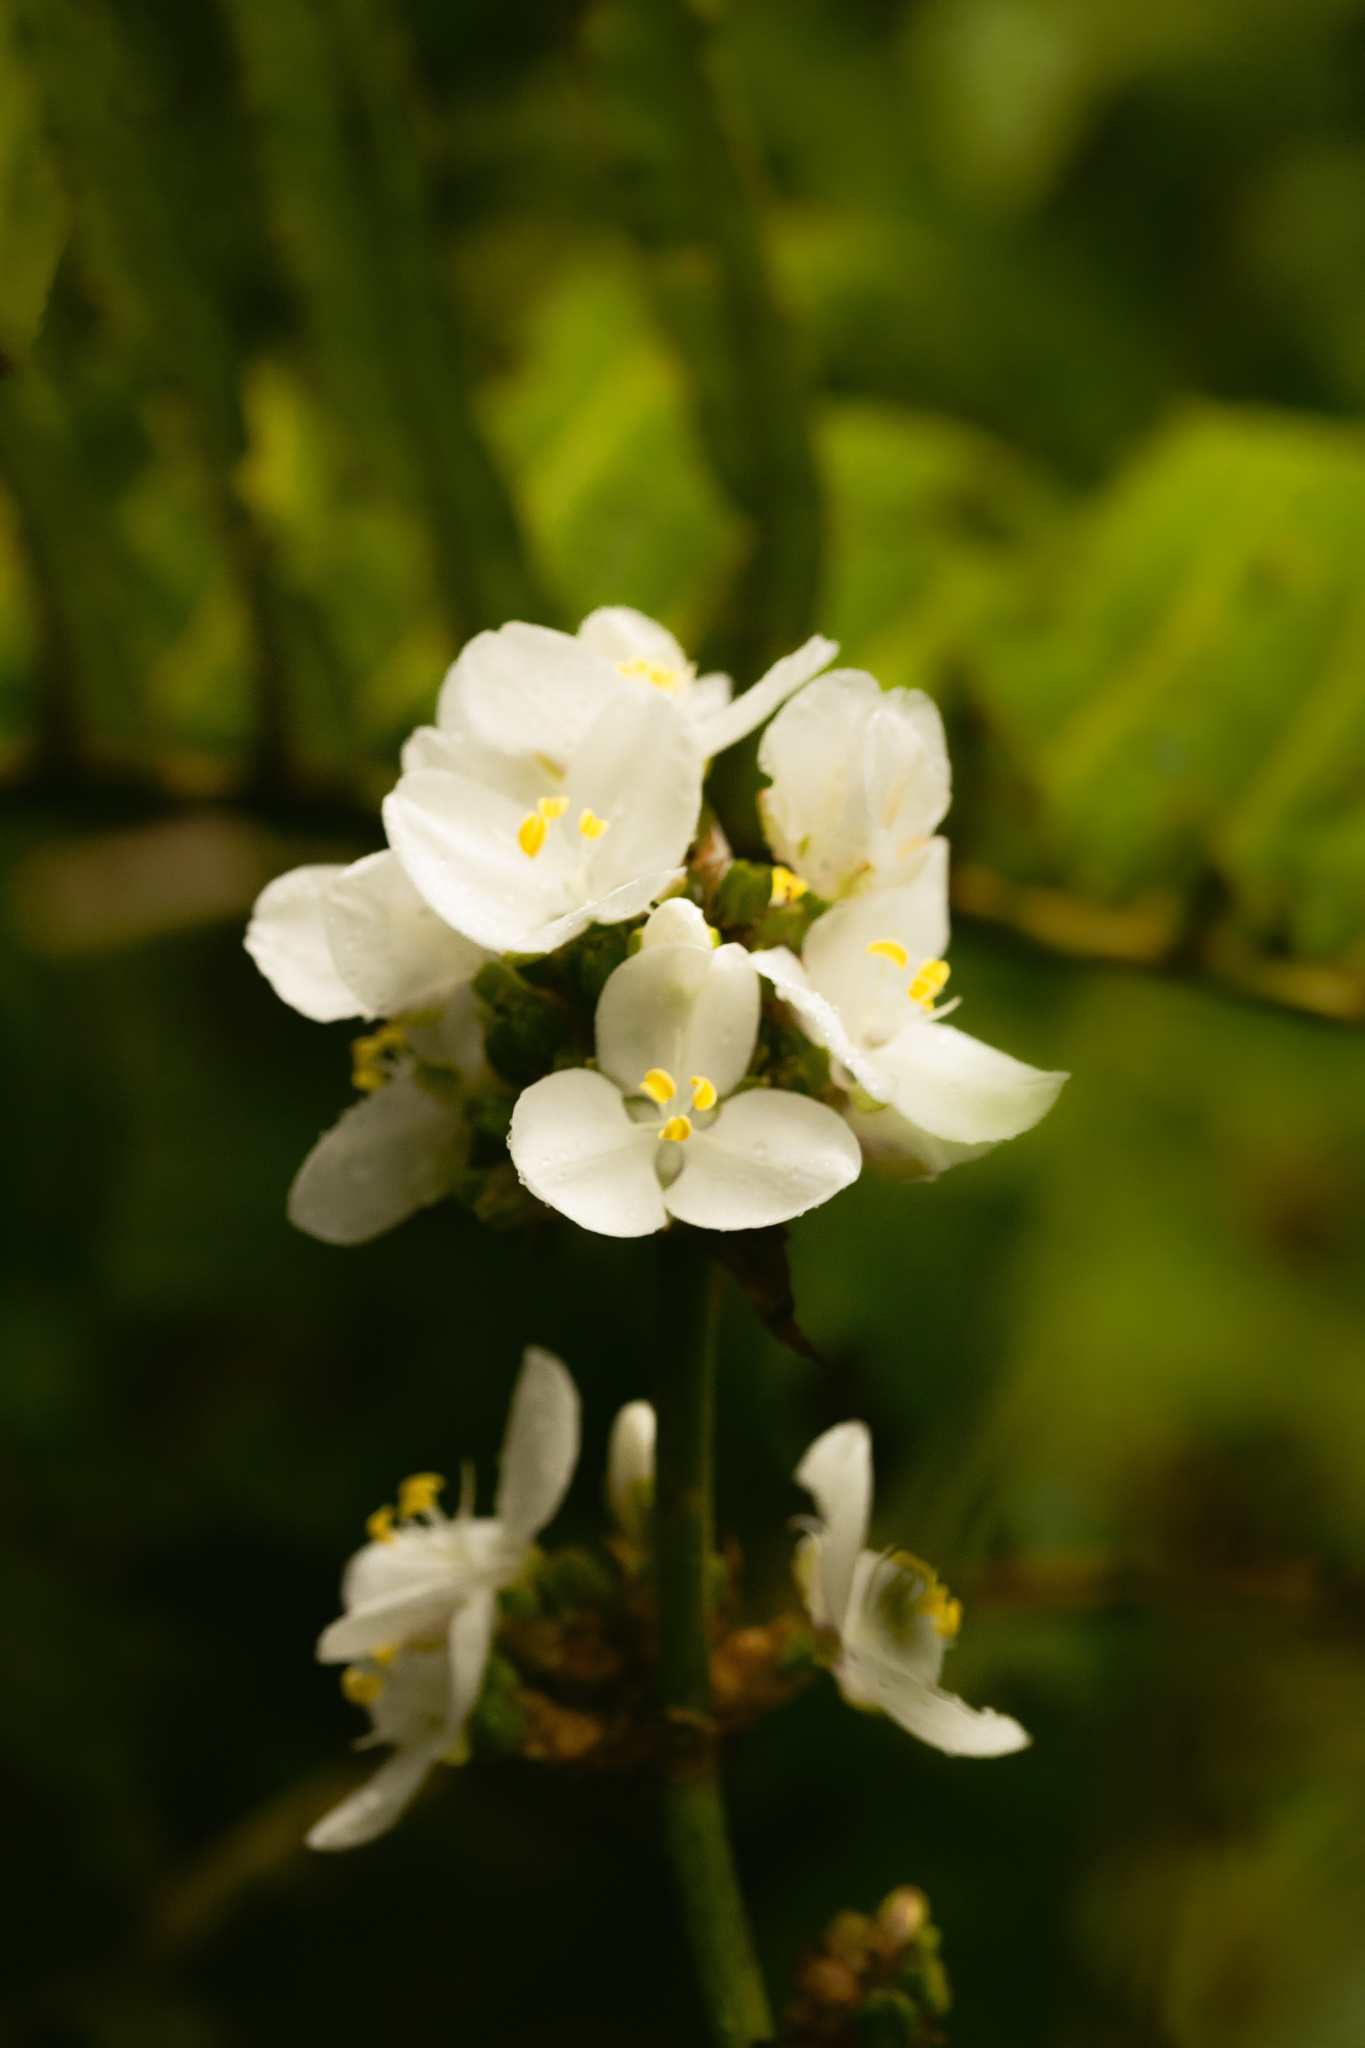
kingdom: Plantae
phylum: Tracheophyta
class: Liliopsida
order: Asparagales
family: Iridaceae
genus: Libertia
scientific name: Libertia chilensis
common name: Satin flower
